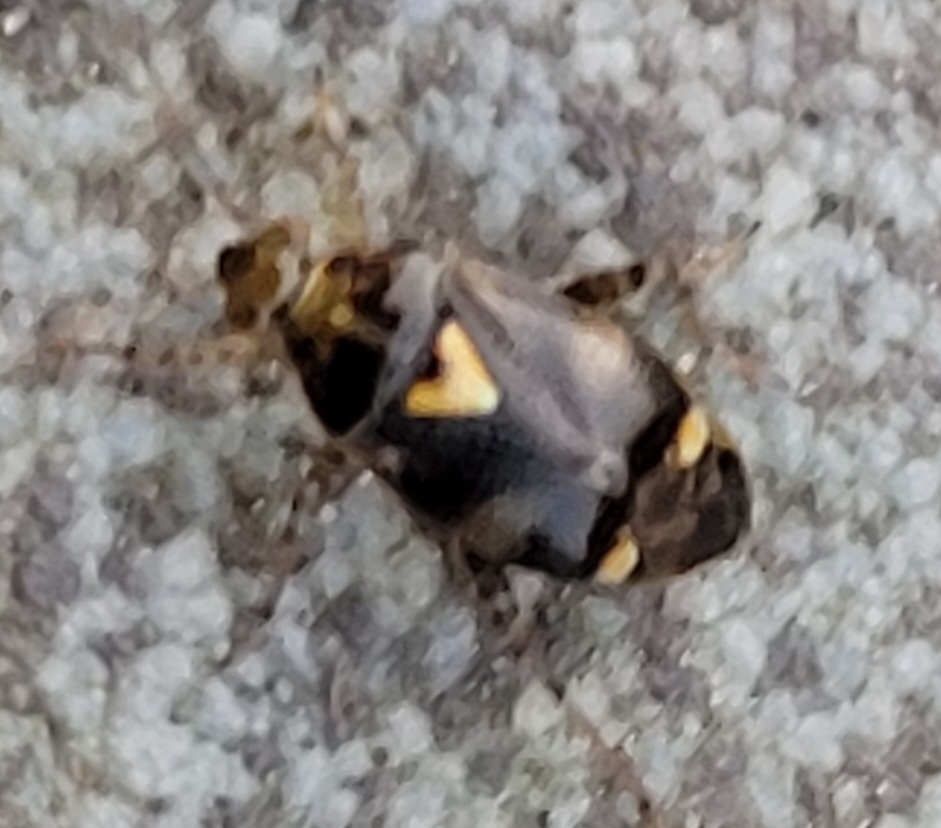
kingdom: Animalia
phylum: Arthropoda
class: Insecta
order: Hemiptera
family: Miridae
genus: Liocoris
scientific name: Liocoris tripustulatus
